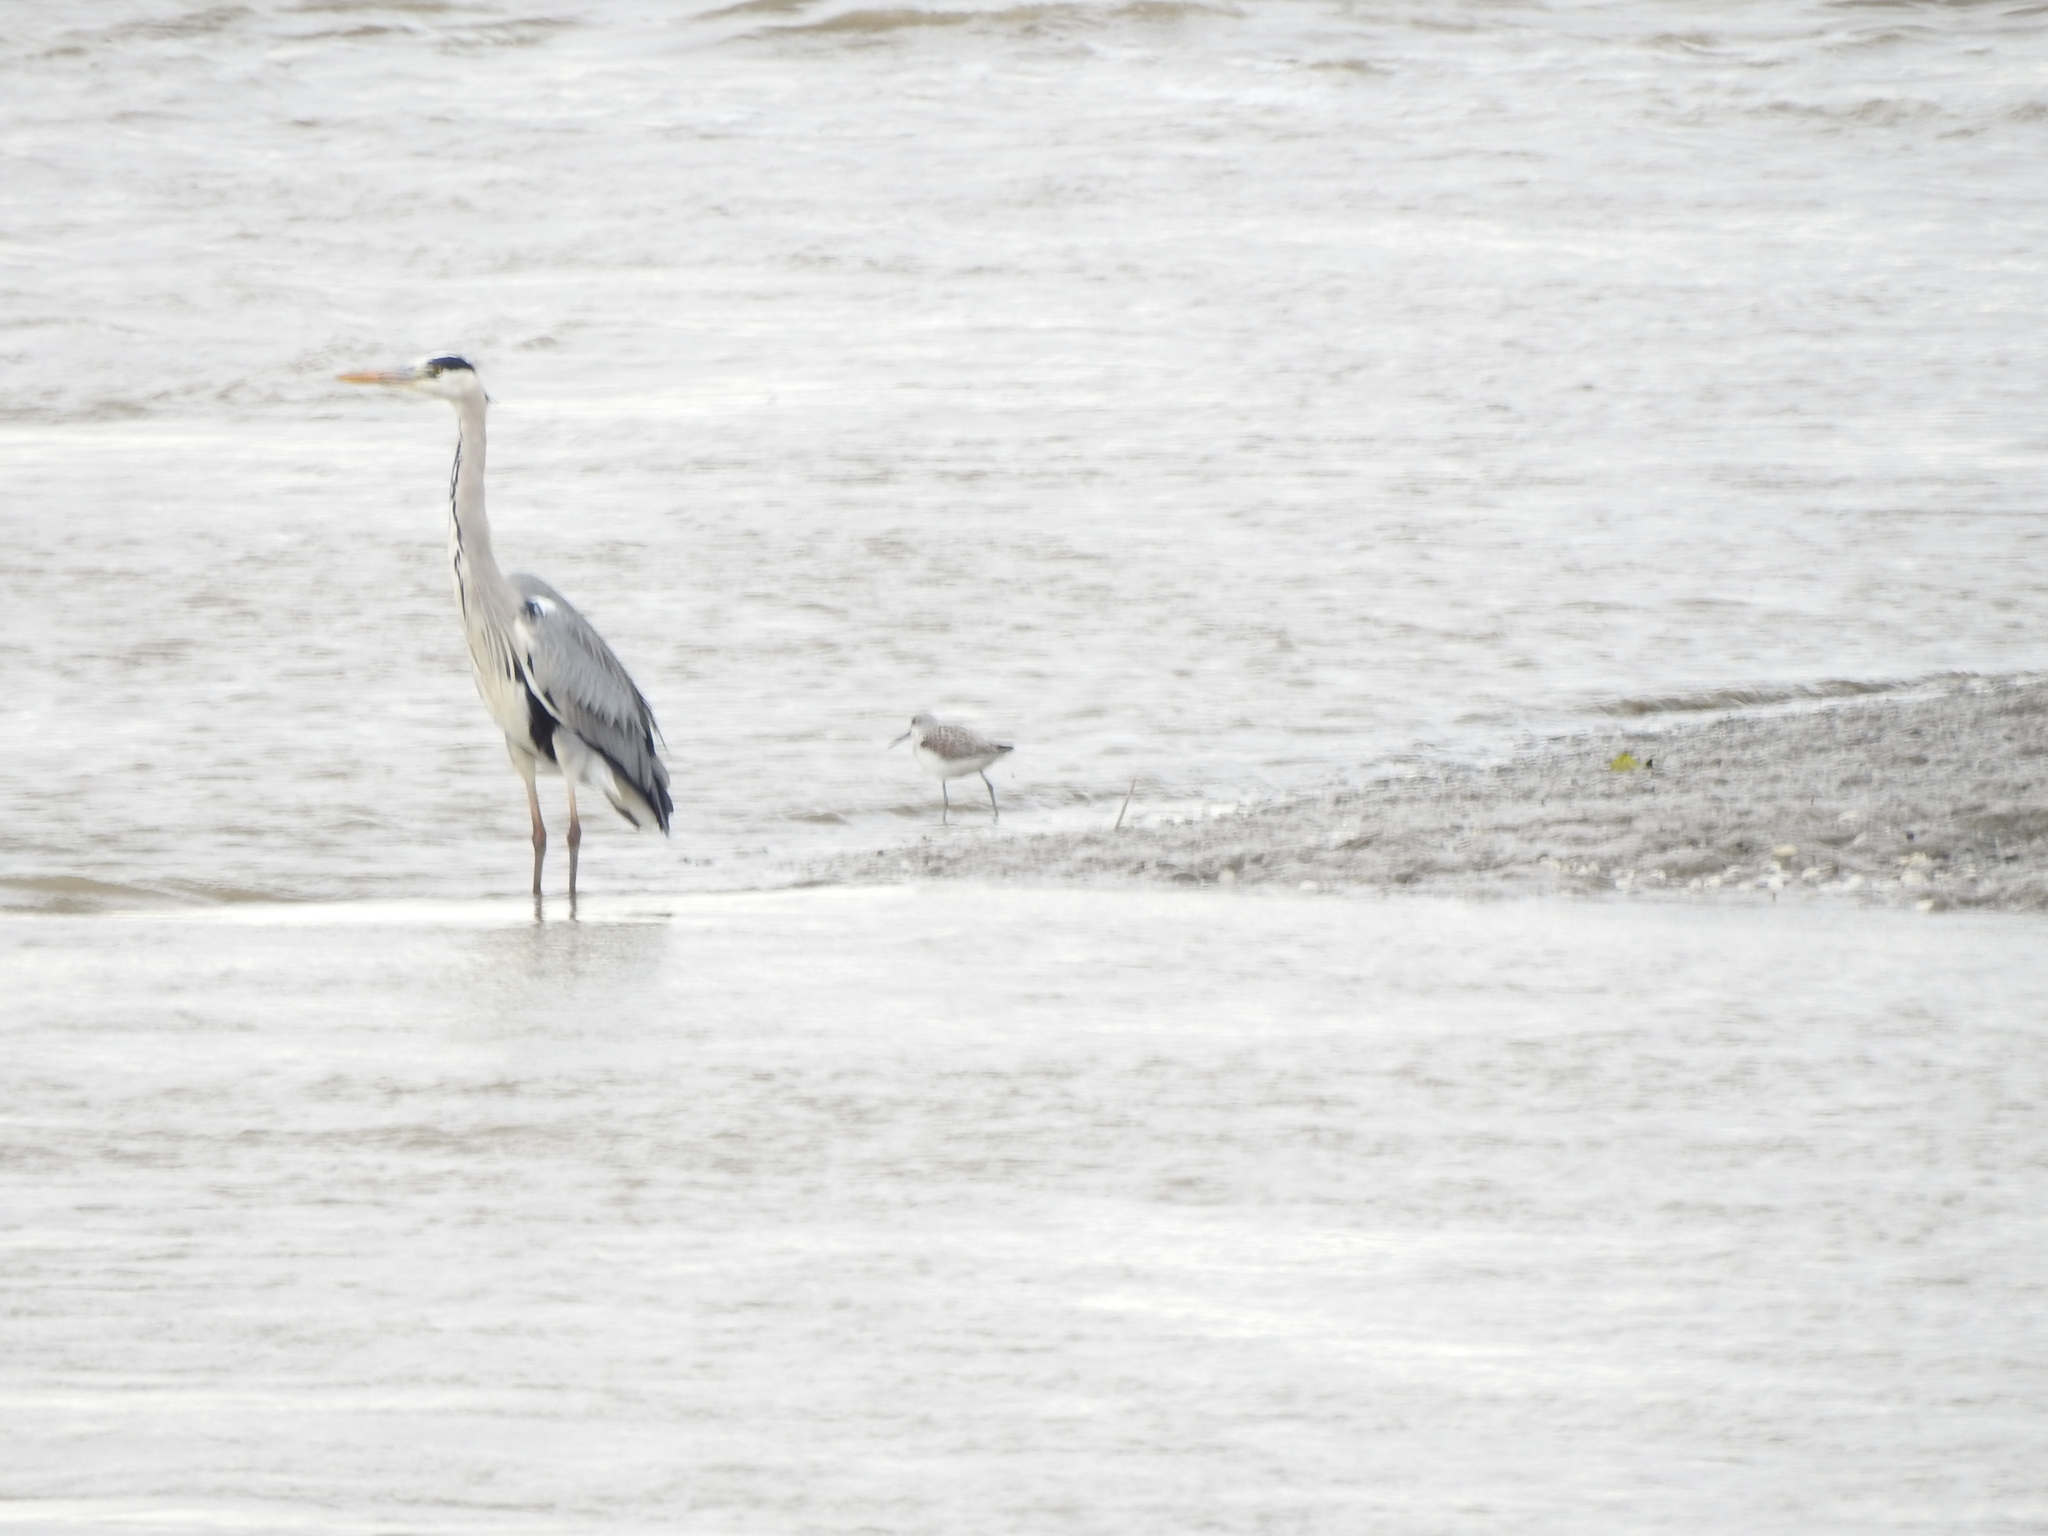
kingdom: Animalia
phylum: Chordata
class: Aves
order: Pelecaniformes
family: Ardeidae
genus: Ardea
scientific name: Ardea cinerea
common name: Grey heron
